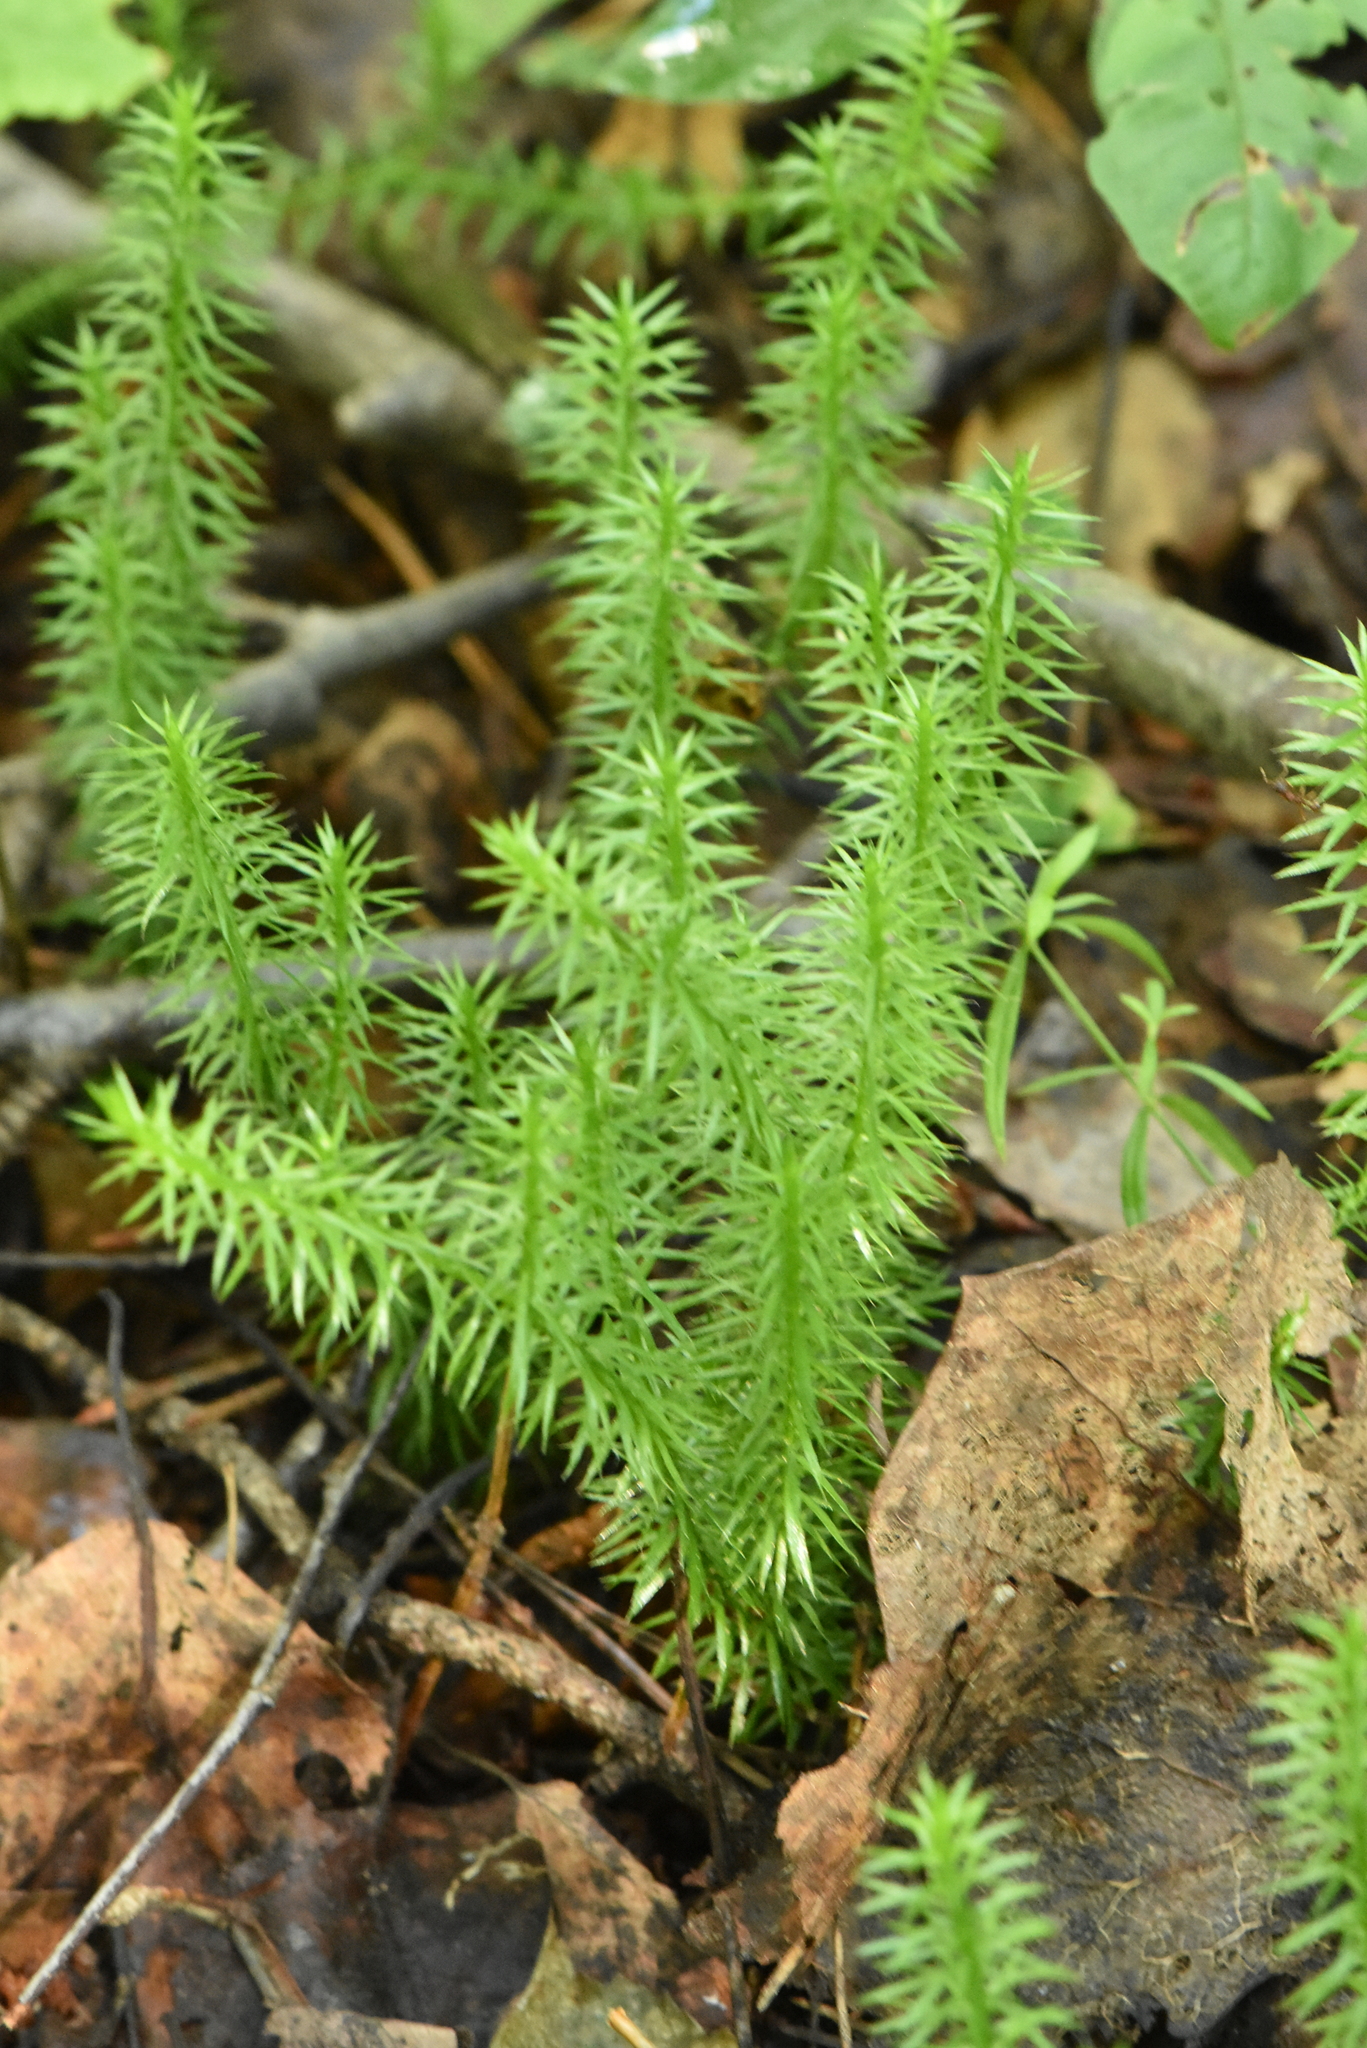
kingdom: Plantae
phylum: Tracheophyta
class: Lycopodiopsida
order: Lycopodiales
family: Lycopodiaceae
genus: Spinulum
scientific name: Spinulum annotinum
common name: Interrupted club-moss
